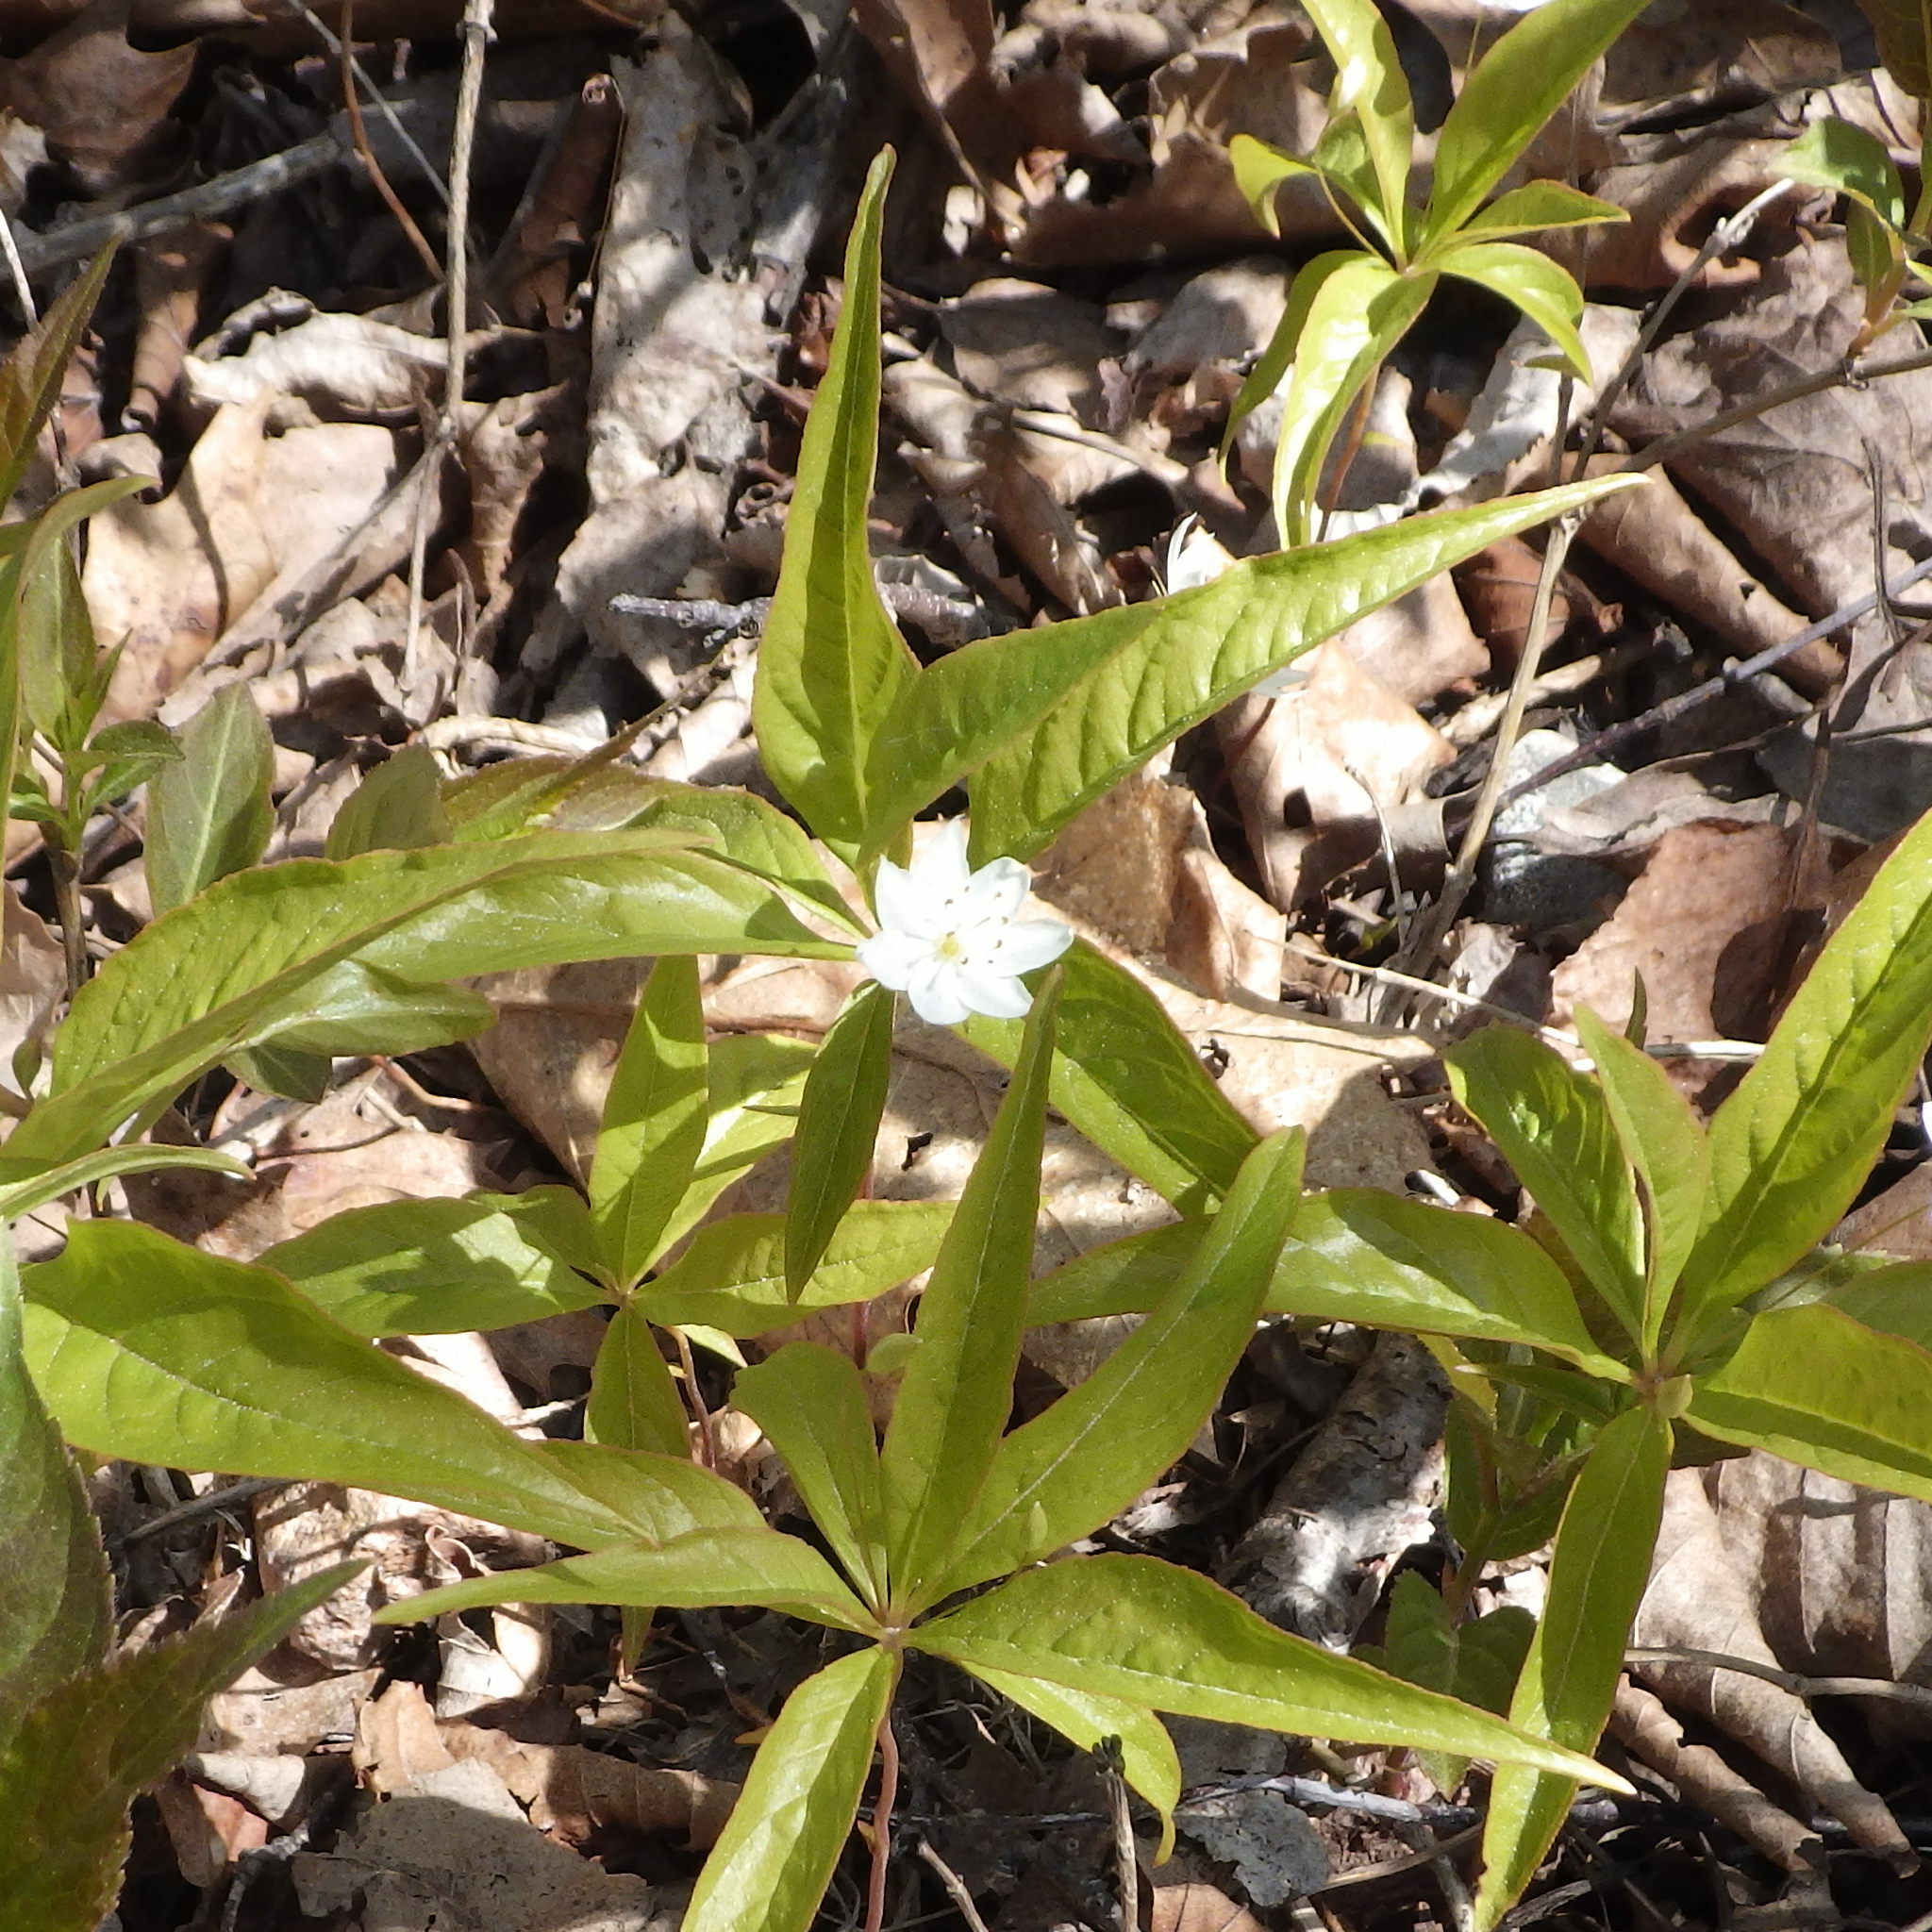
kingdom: Plantae
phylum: Tracheophyta
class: Magnoliopsida
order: Ericales
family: Primulaceae
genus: Lysimachia
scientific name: Lysimachia borealis
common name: American starflower
